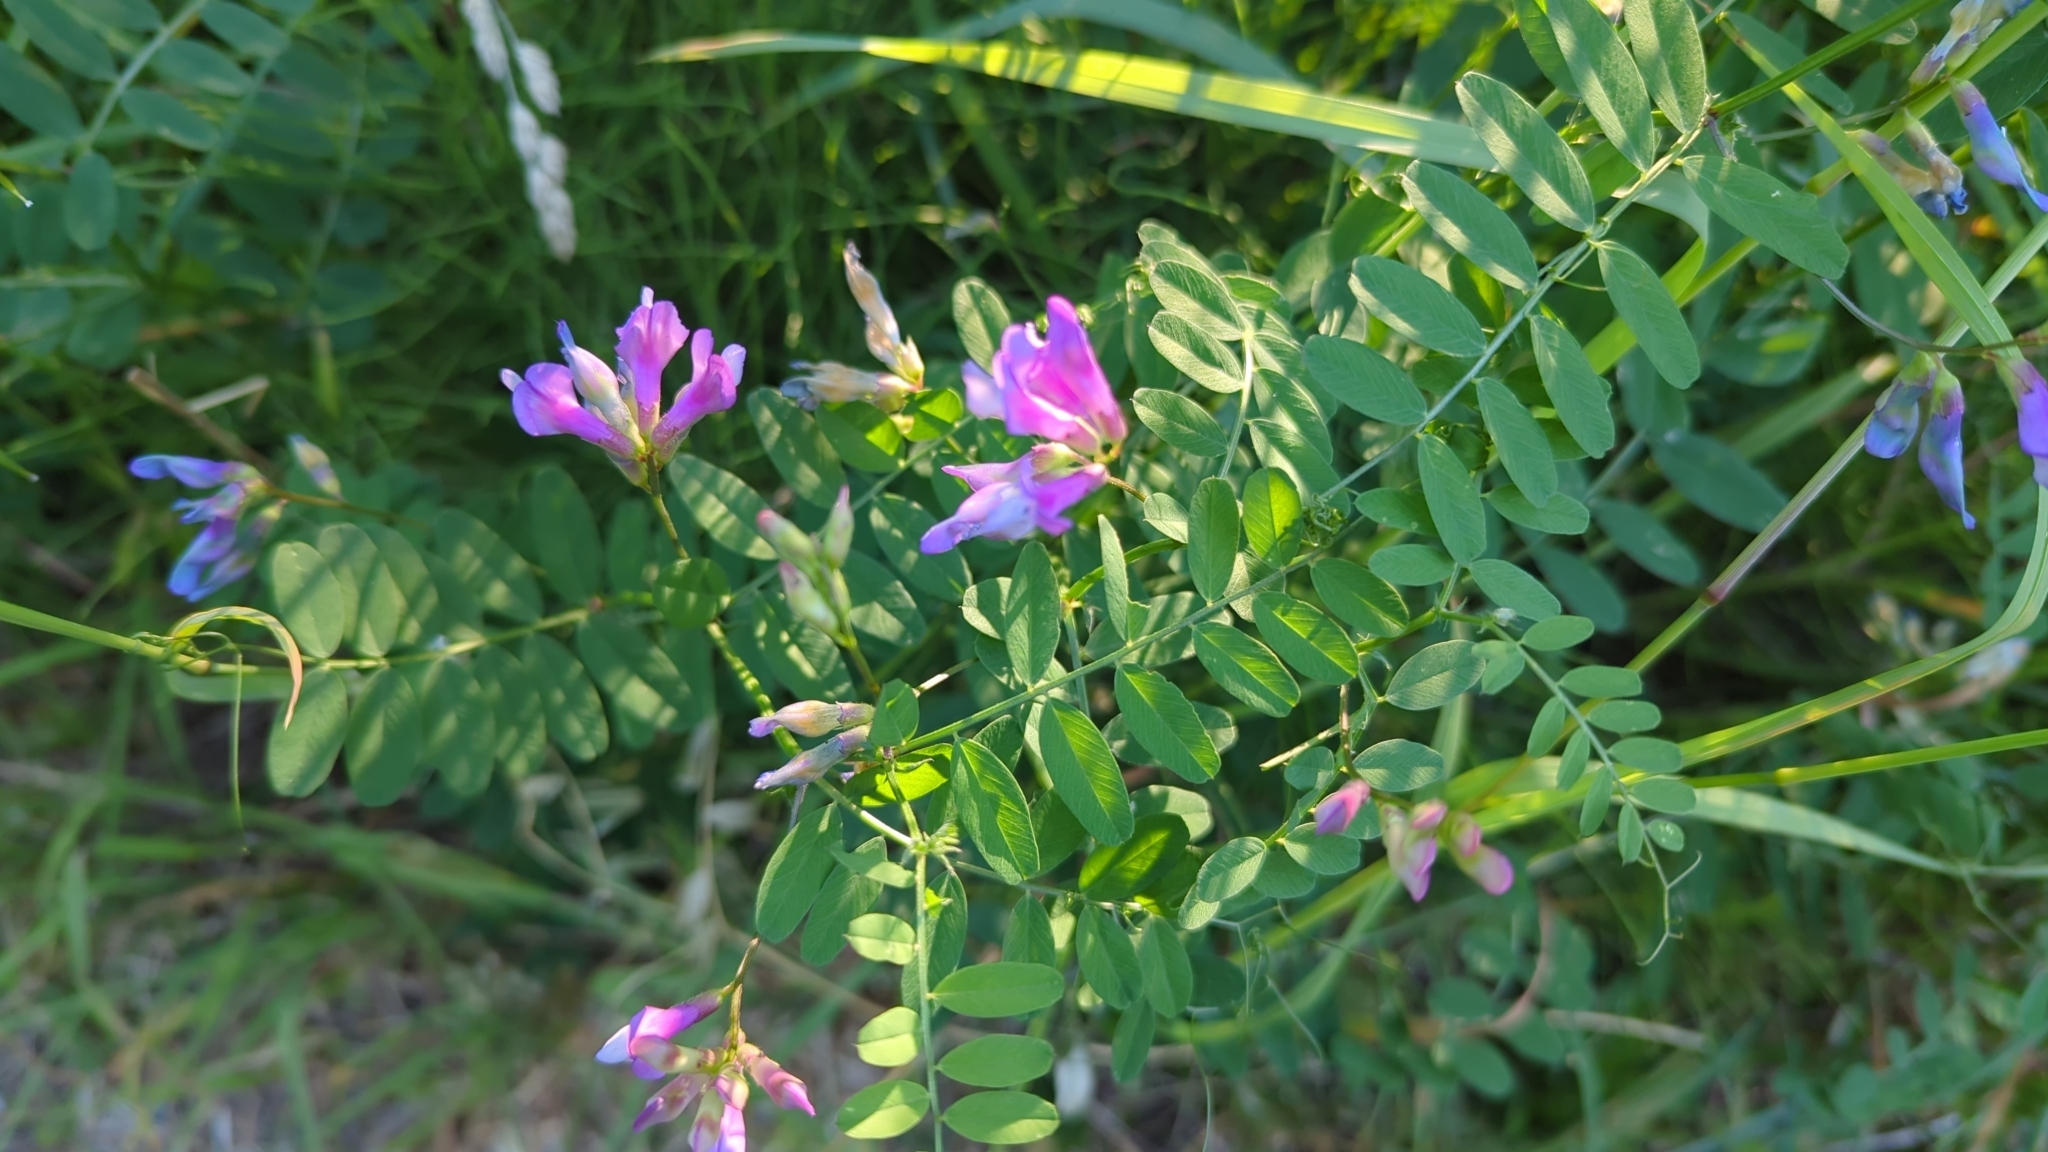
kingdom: Plantae
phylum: Tracheophyta
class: Magnoliopsida
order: Fabales
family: Fabaceae
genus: Vicia
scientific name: Vicia americana
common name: American vetch
